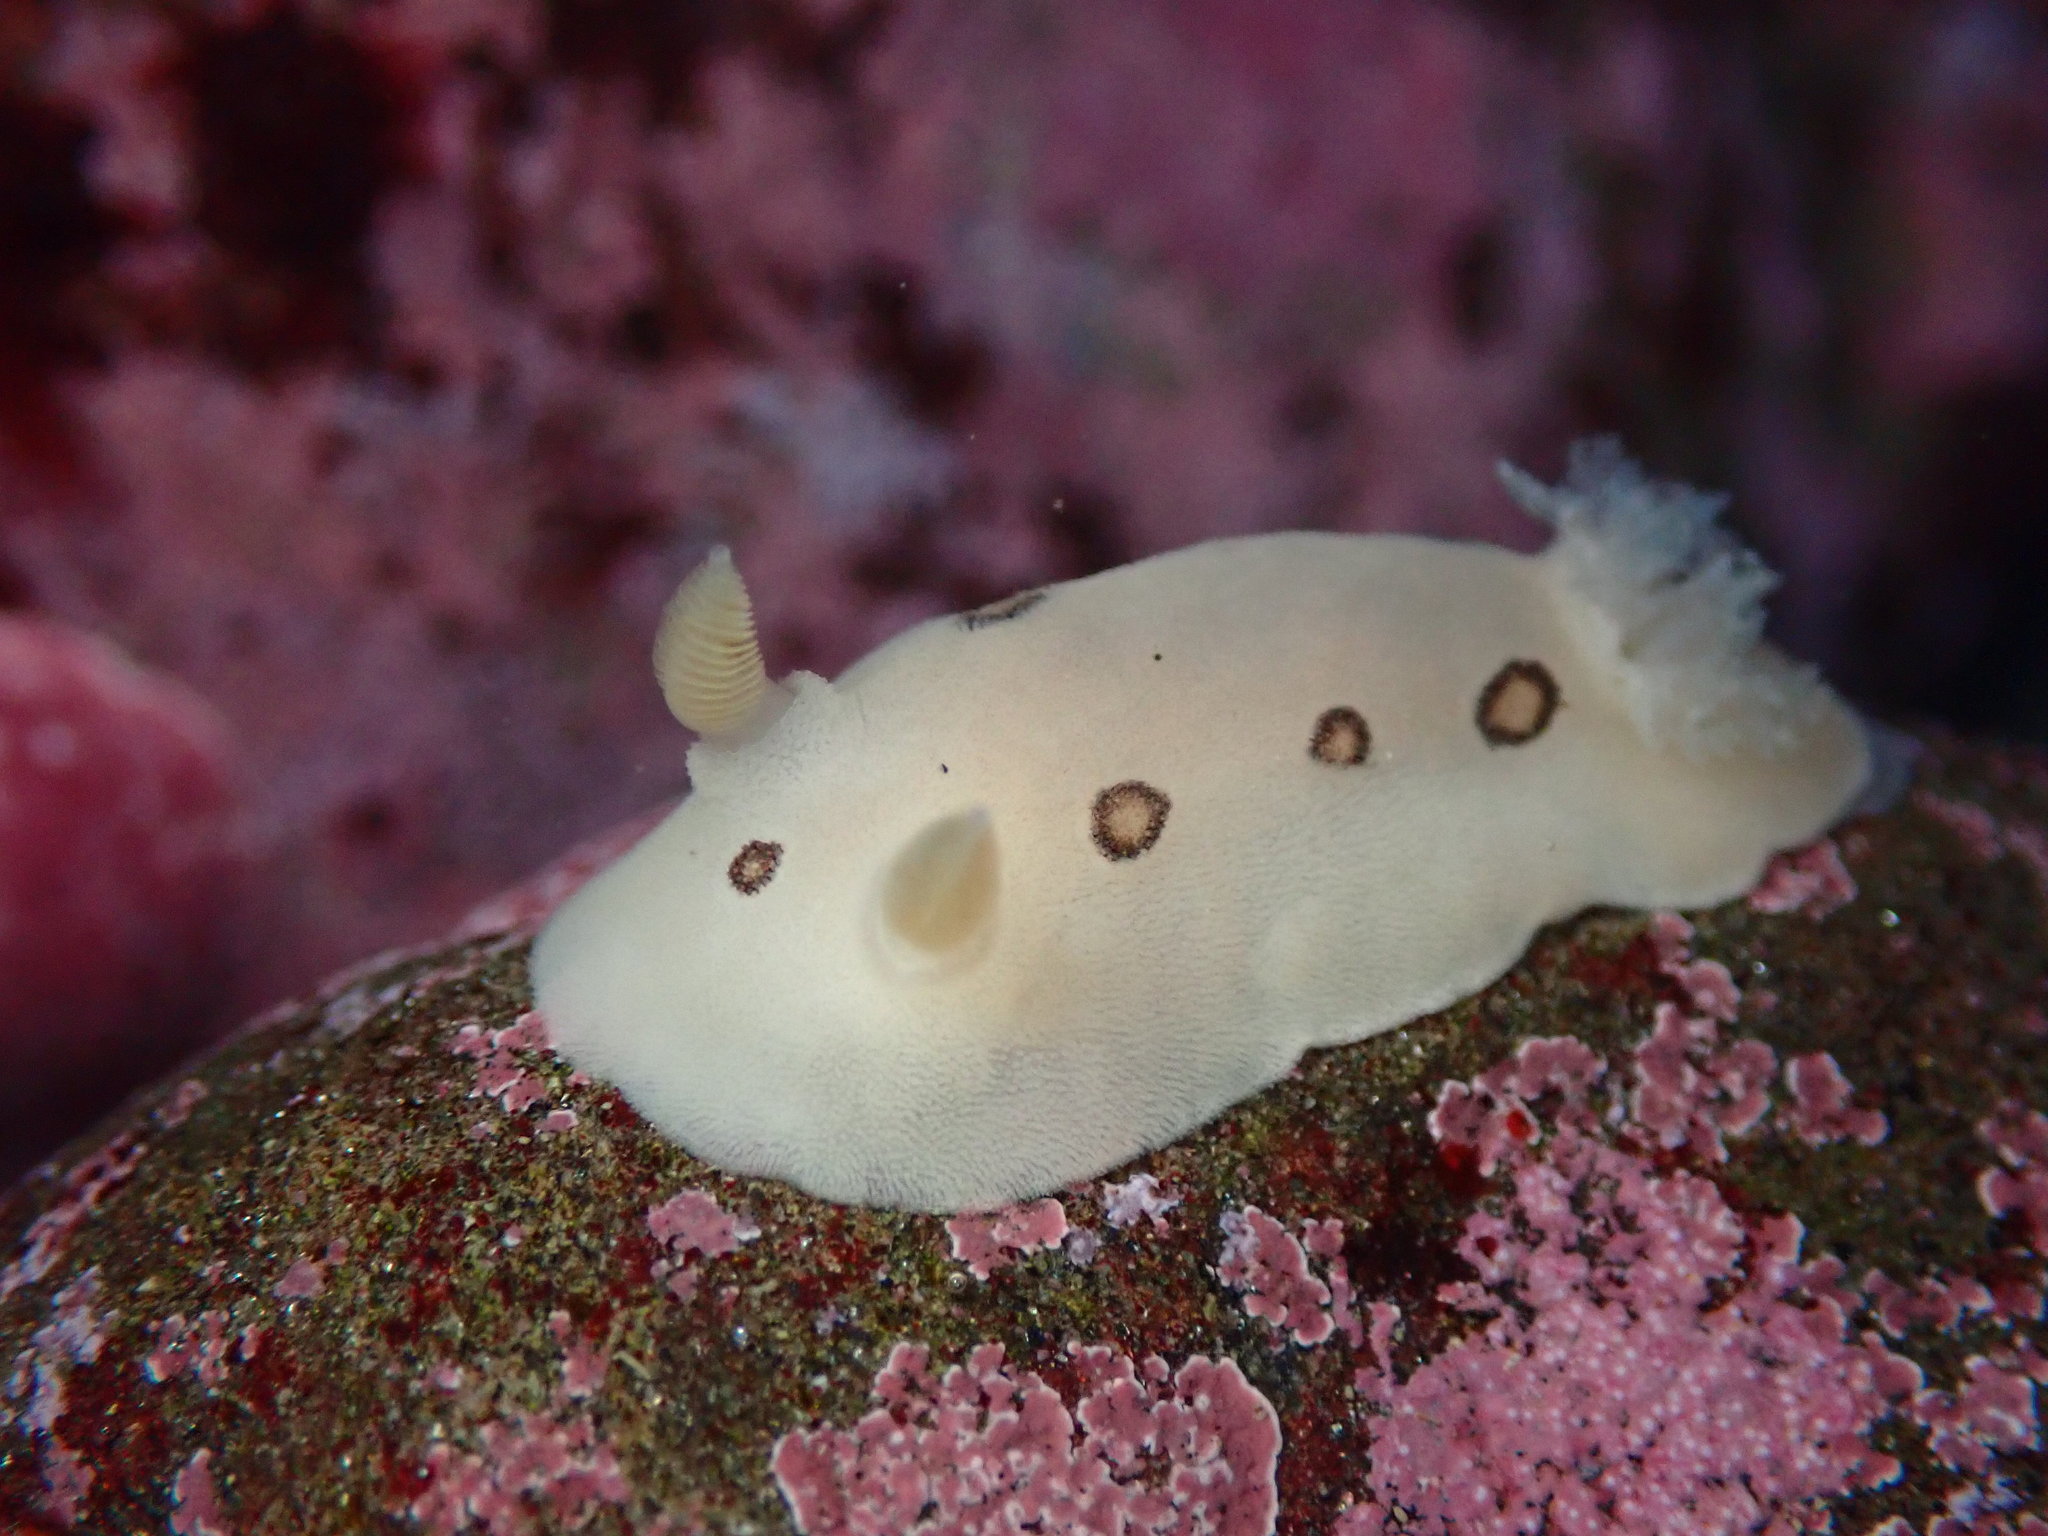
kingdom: Animalia
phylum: Mollusca
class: Gastropoda
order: Nudibranchia
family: Discodorididae
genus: Diaulula
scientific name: Diaulula sandiegensis
